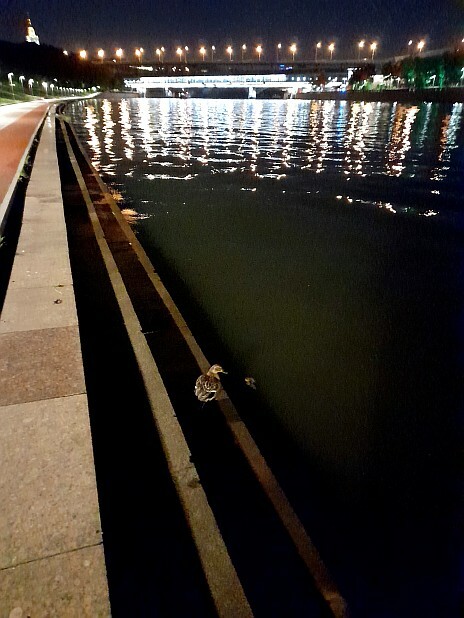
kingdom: Animalia
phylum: Chordata
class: Aves
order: Anseriformes
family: Anatidae
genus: Anas
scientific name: Anas platyrhynchos
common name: Mallard
